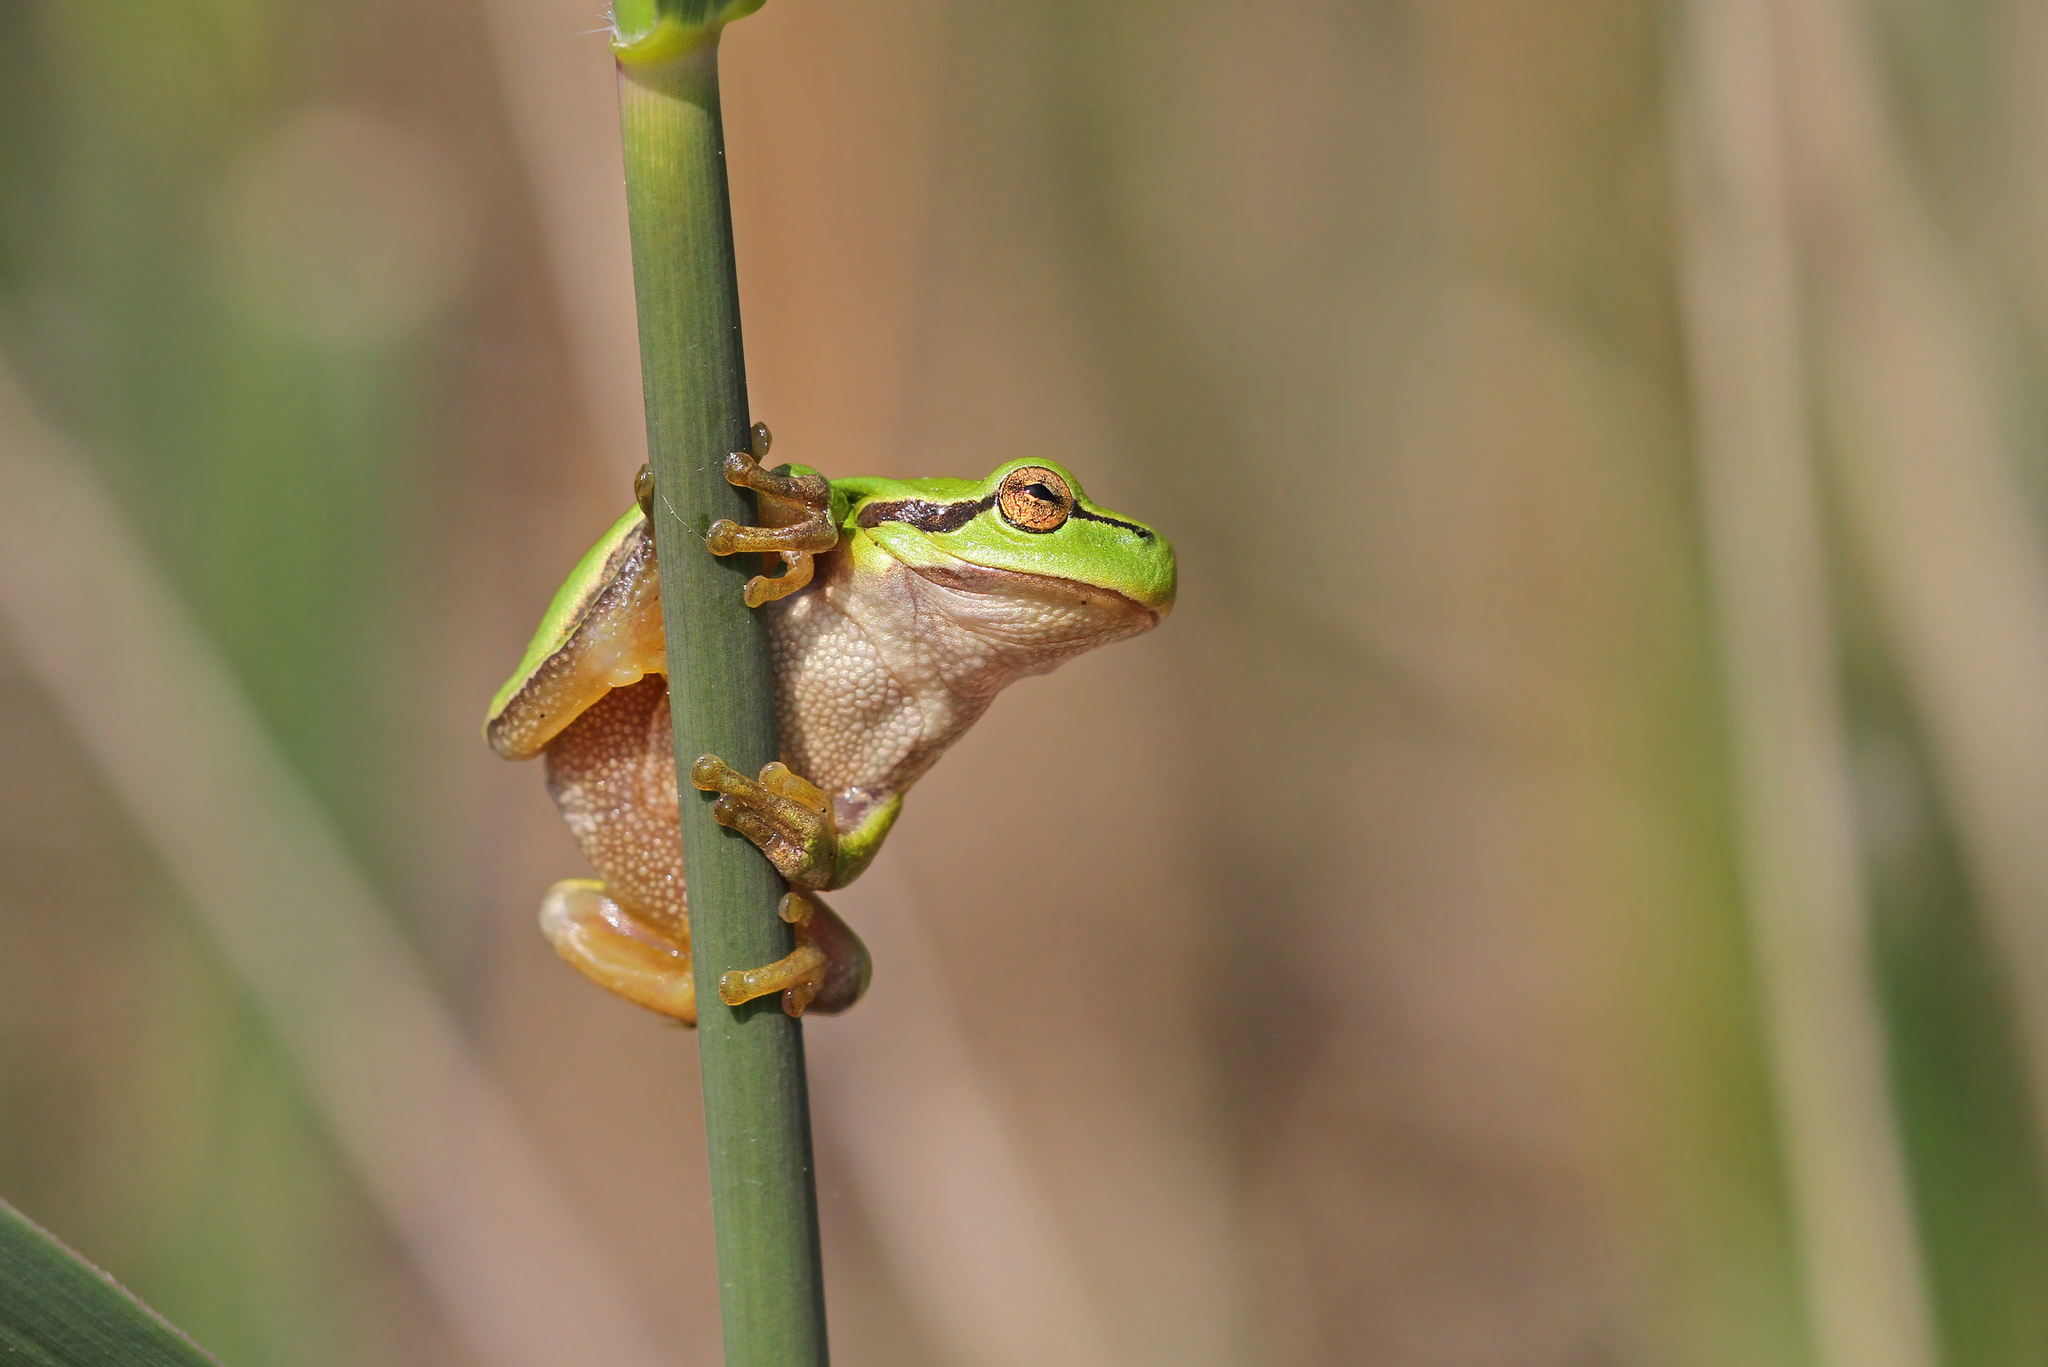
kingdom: Animalia
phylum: Chordata
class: Amphibia
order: Anura
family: Hylidae
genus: Hyla
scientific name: Hyla arborea
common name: Common tree frog
